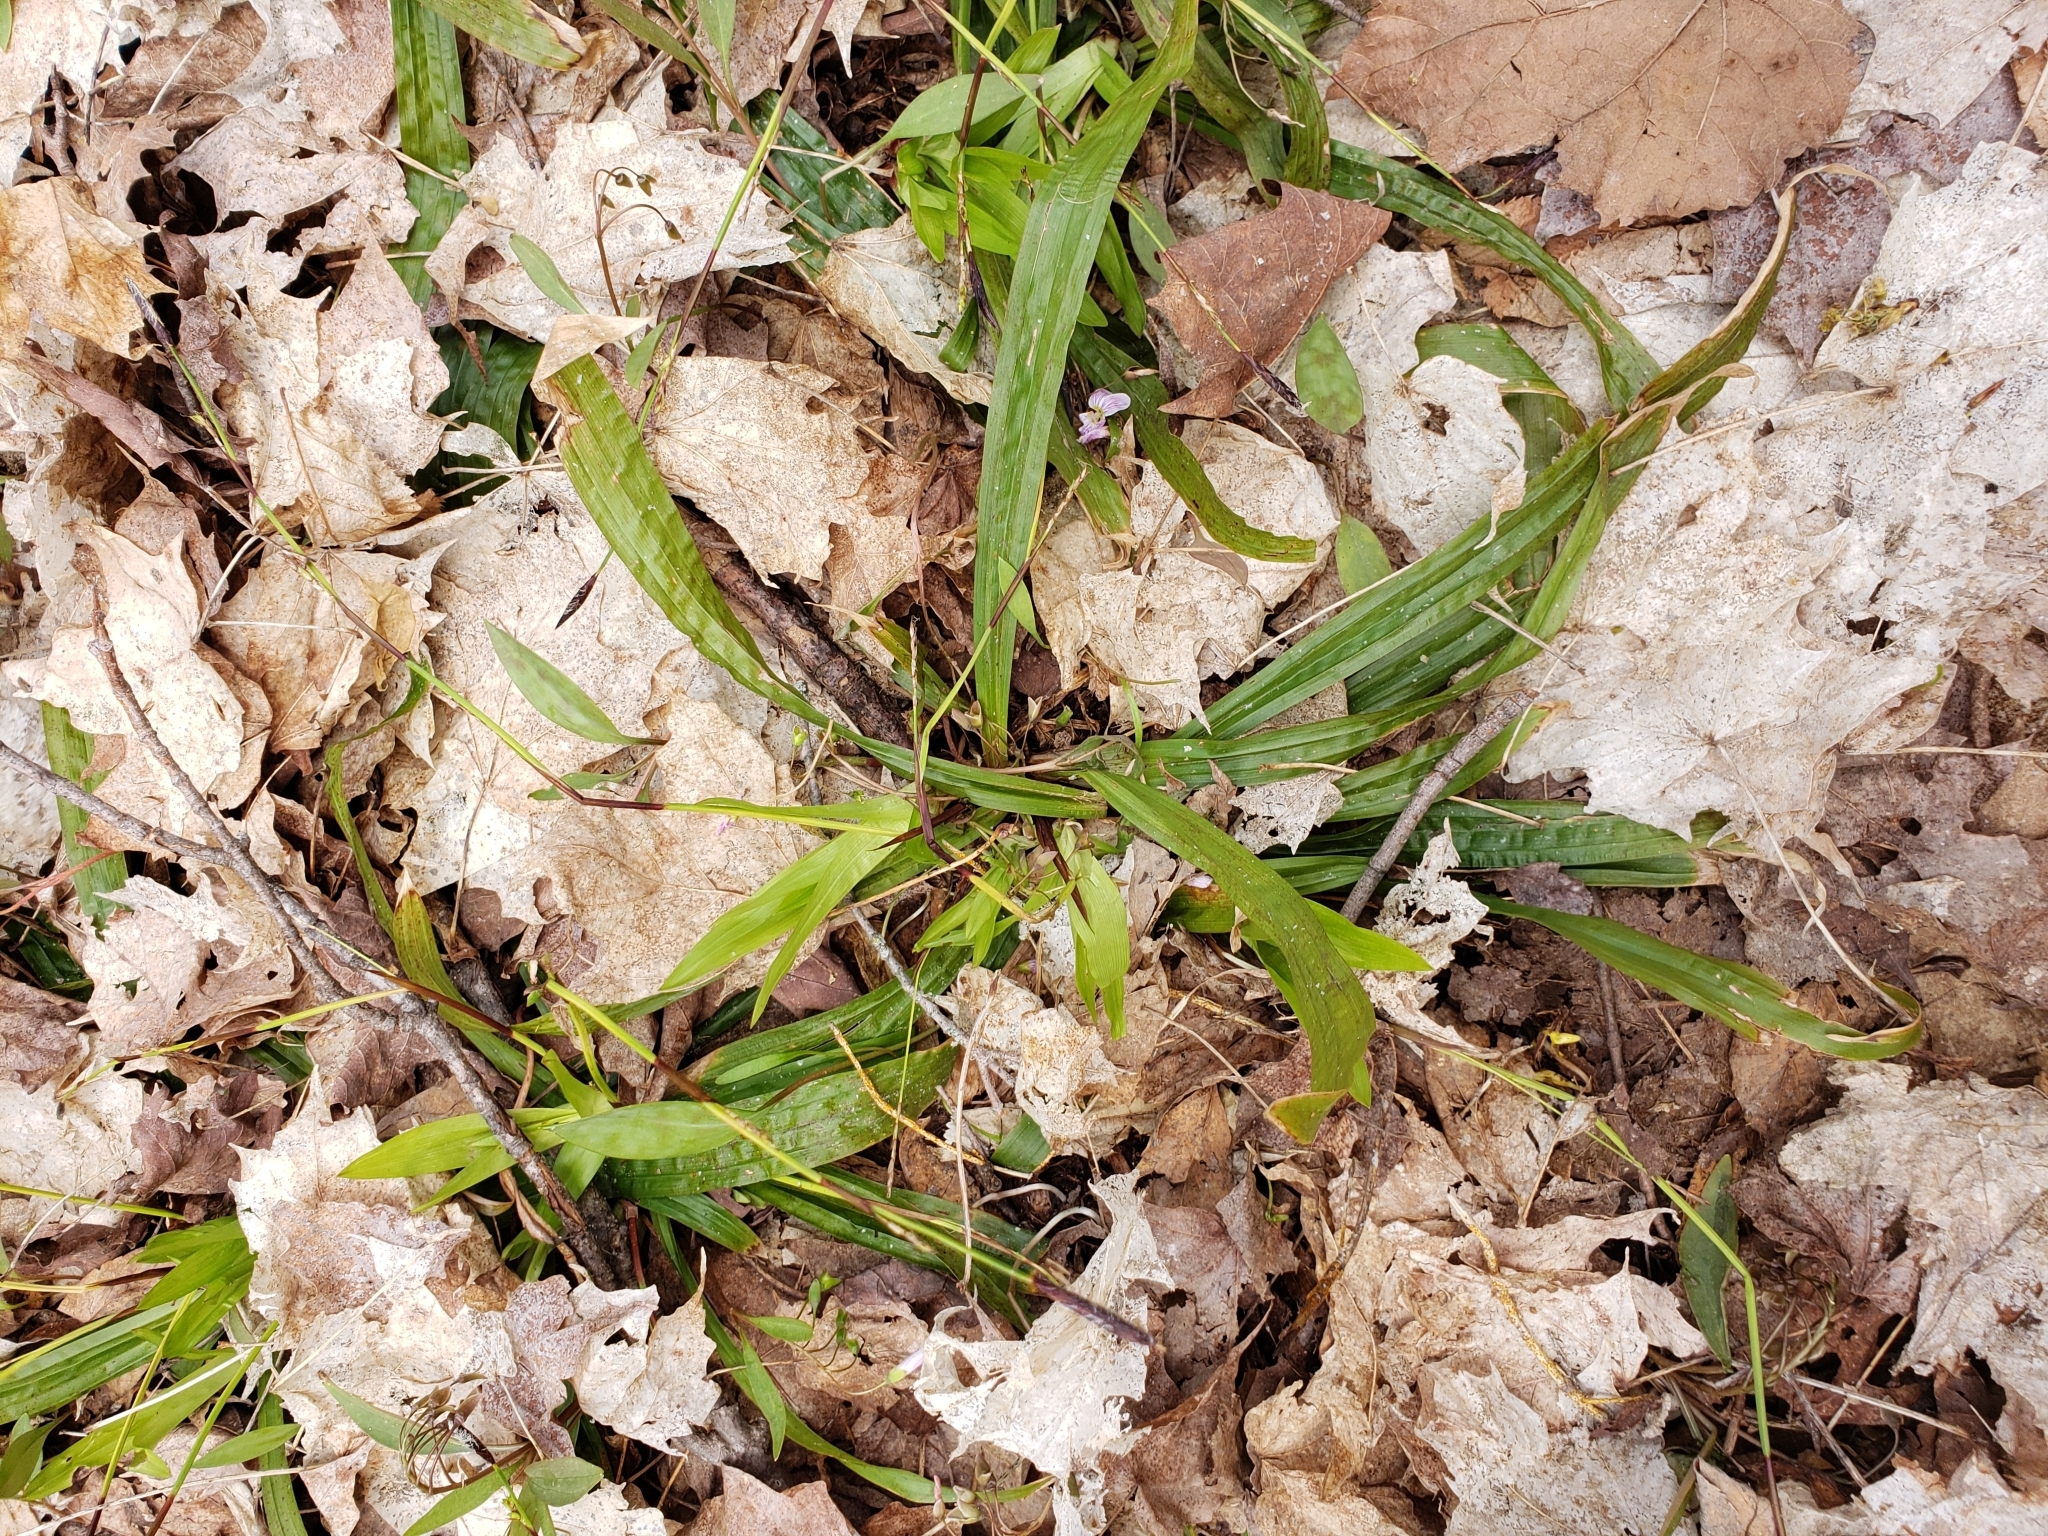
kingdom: Plantae
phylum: Tracheophyta
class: Liliopsida
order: Poales
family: Cyperaceae
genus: Carex
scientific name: Carex plantaginea
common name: Plantain-leaved sedge
